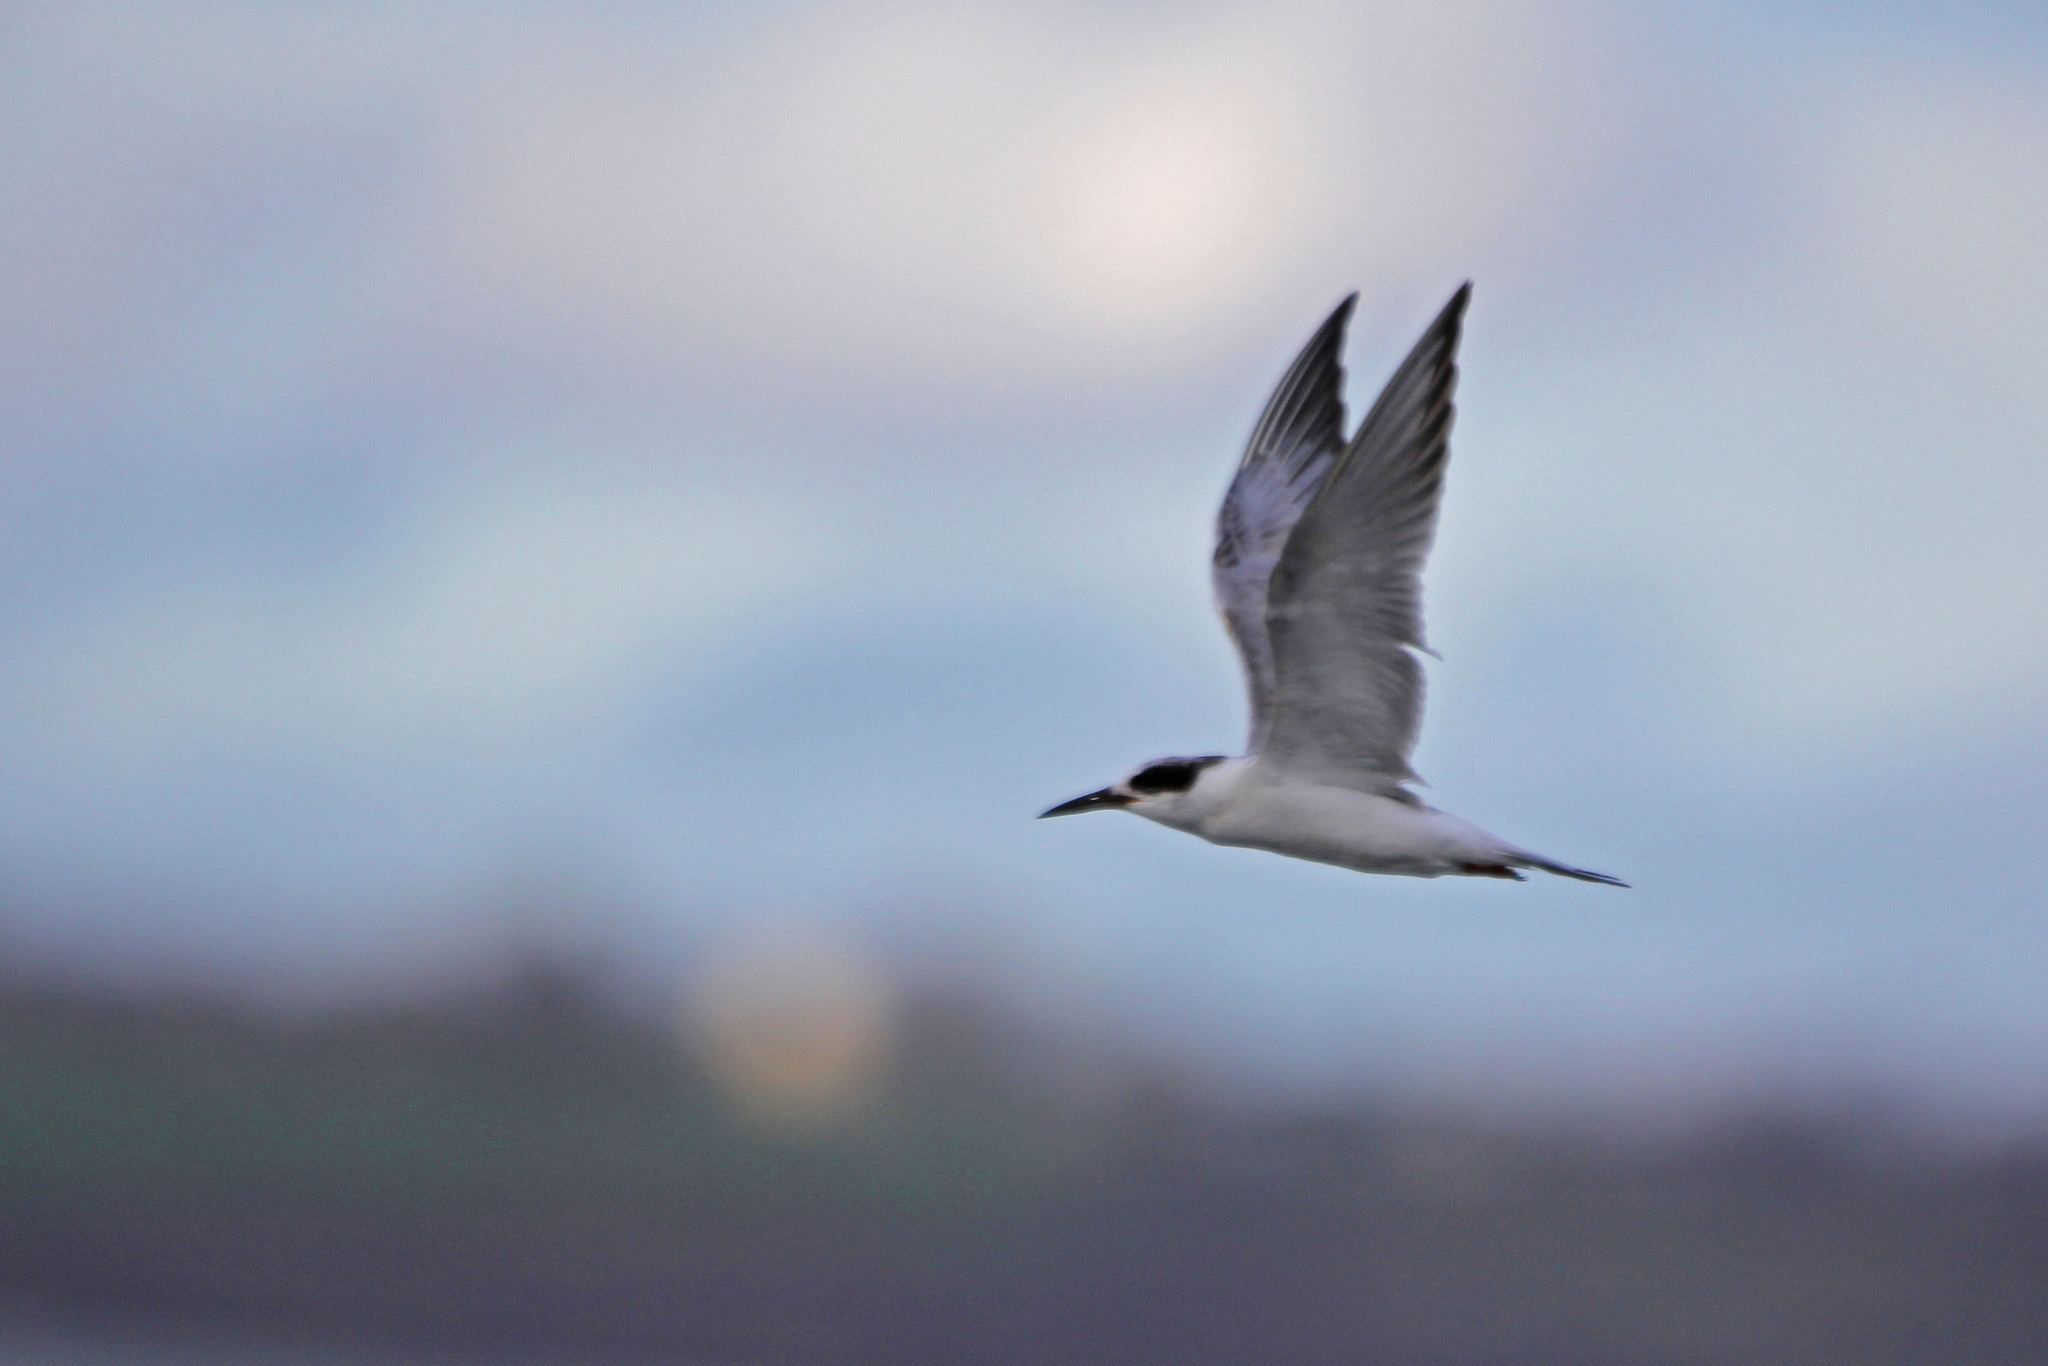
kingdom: Animalia
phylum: Chordata
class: Aves
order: Charadriiformes
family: Laridae
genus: Sterna
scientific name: Sterna forsteri
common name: Forster's tern
